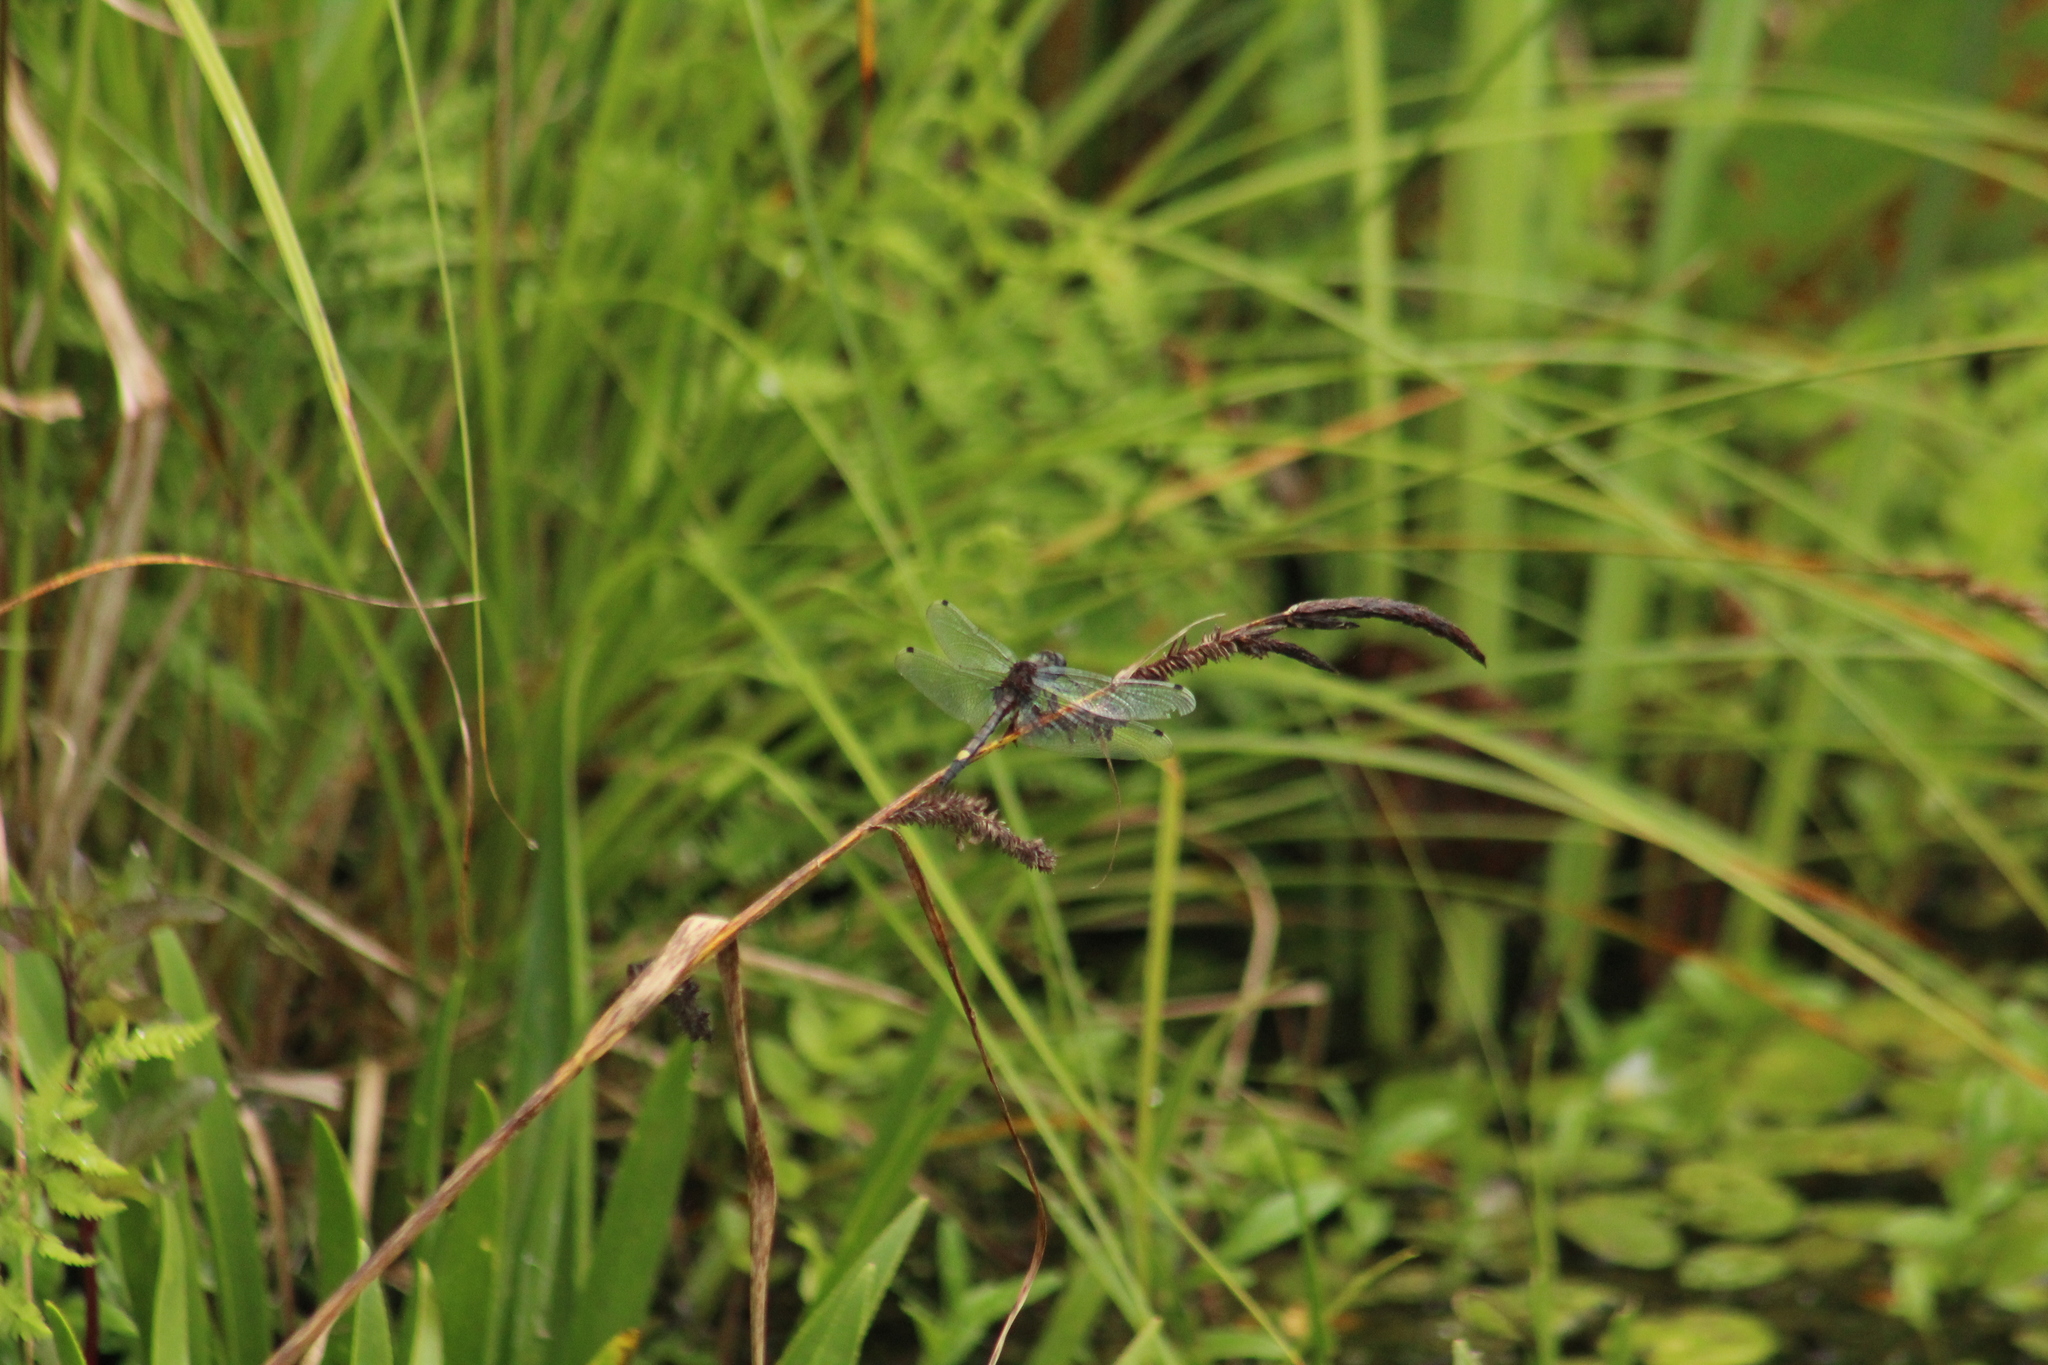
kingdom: Animalia
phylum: Arthropoda
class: Insecta
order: Odonata
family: Libellulidae
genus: Leucorrhinia
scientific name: Leucorrhinia pectoralis
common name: Yellow-spotted whiteface
